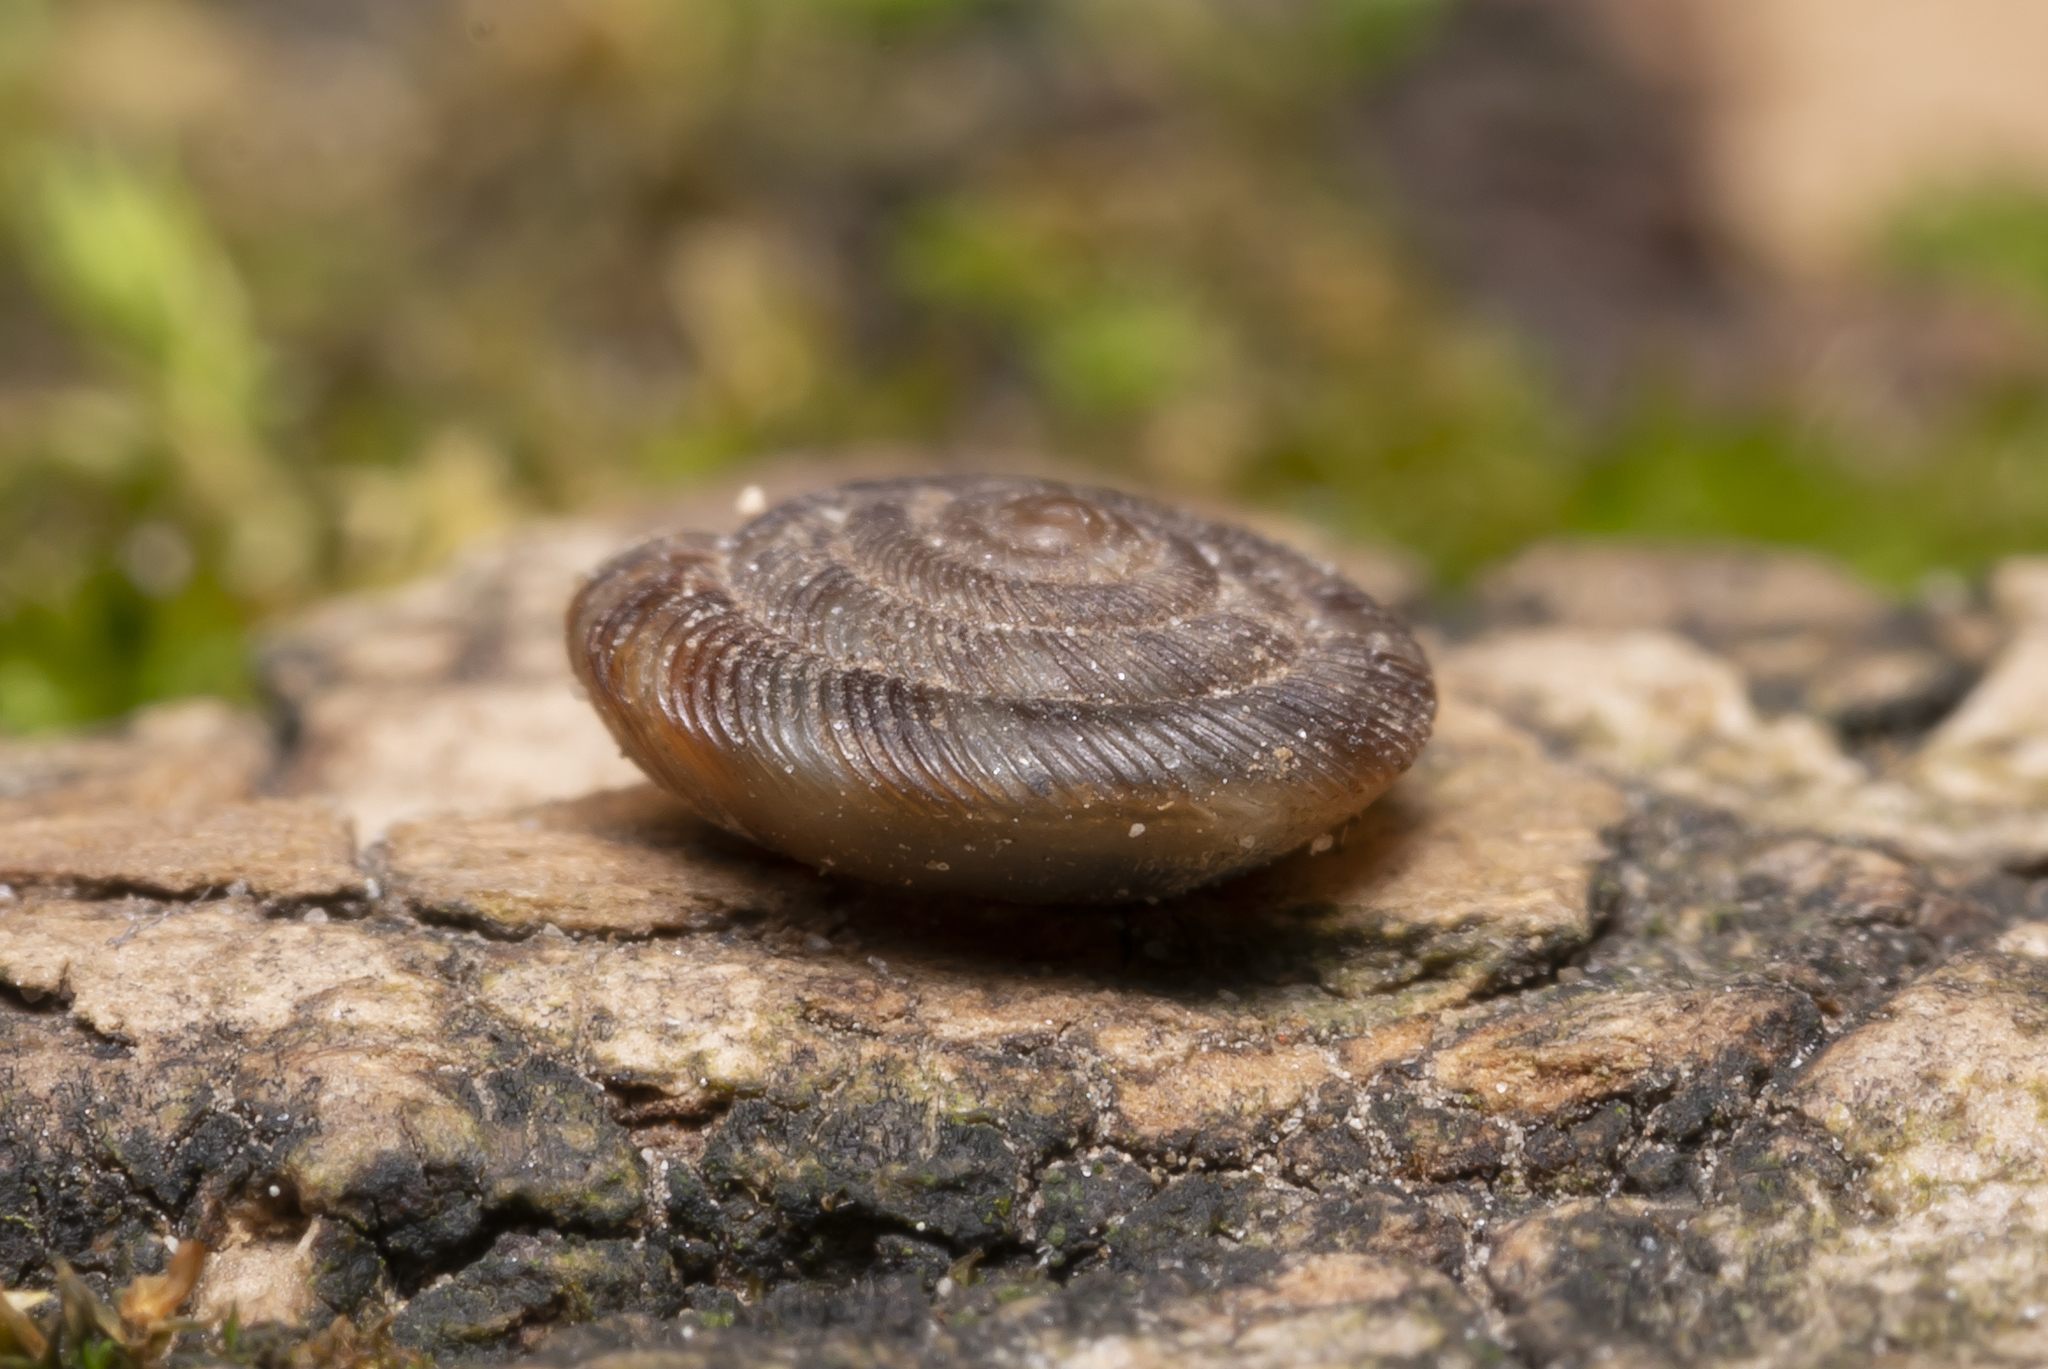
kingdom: Animalia
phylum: Mollusca
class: Gastropoda
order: Stylommatophora
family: Discidae
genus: Discus
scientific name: Discus rotundatus
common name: Rounded snail
